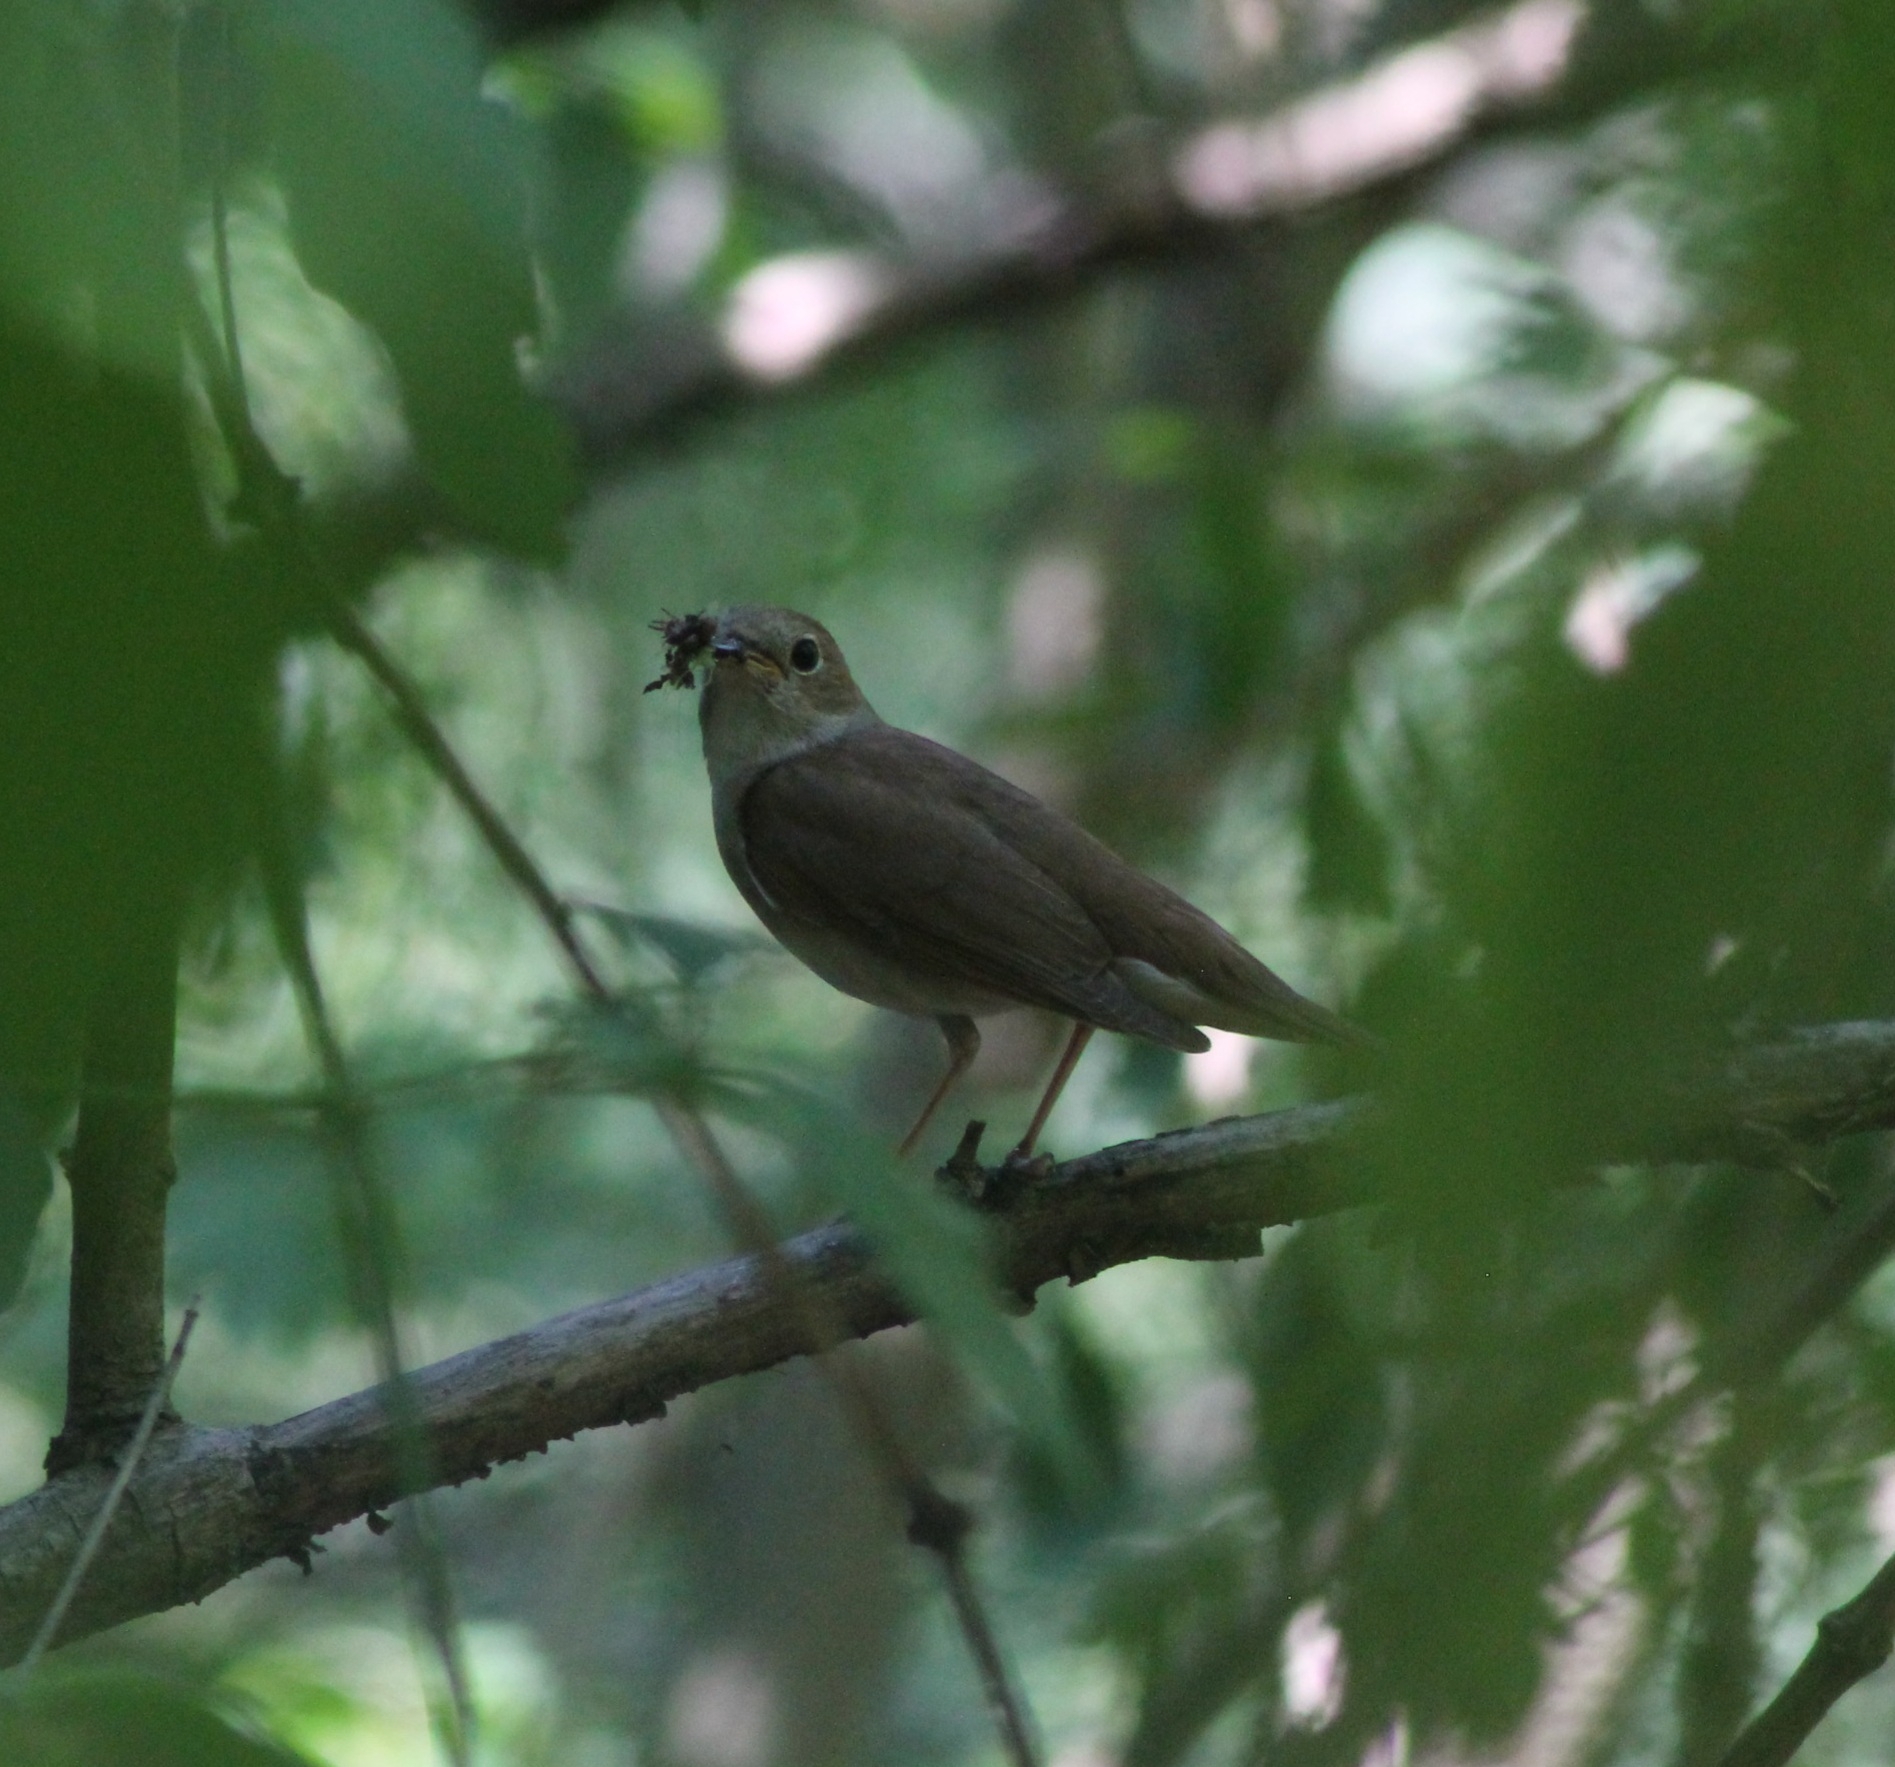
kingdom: Animalia
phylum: Chordata
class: Aves
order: Passeriformes
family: Muscicapidae
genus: Luscinia
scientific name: Luscinia megarhynchos
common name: Common nightingale
